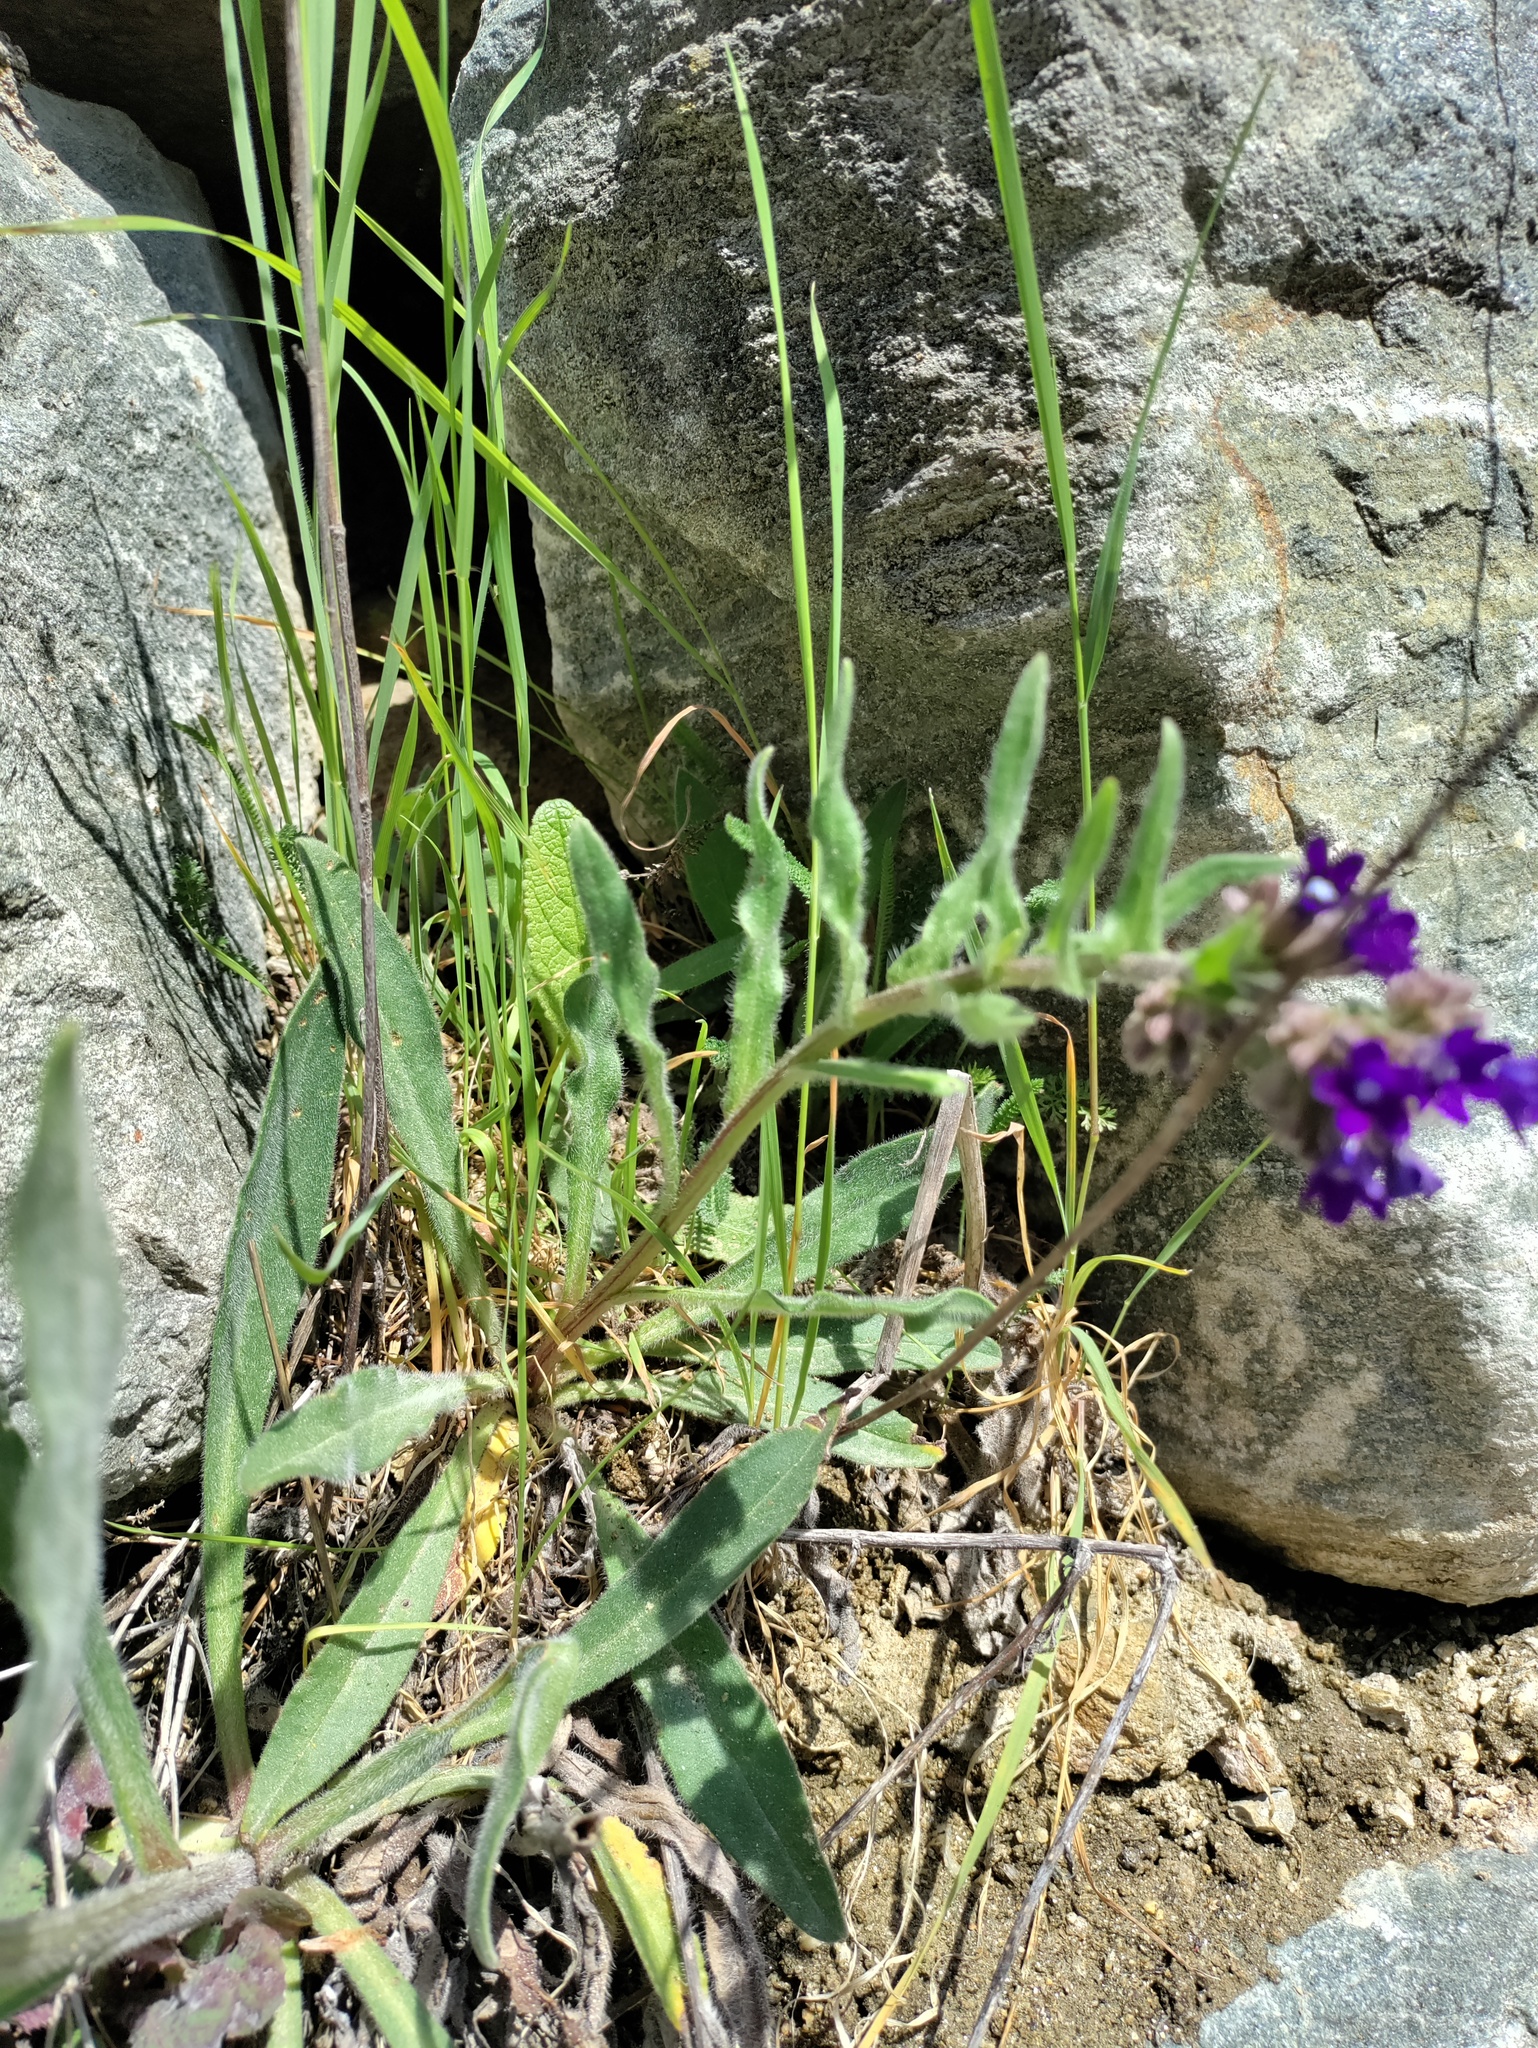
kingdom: Plantae
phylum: Tracheophyta
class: Magnoliopsida
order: Boraginales
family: Boraginaceae
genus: Anchusa
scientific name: Anchusa officinalis
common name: Alkanet
